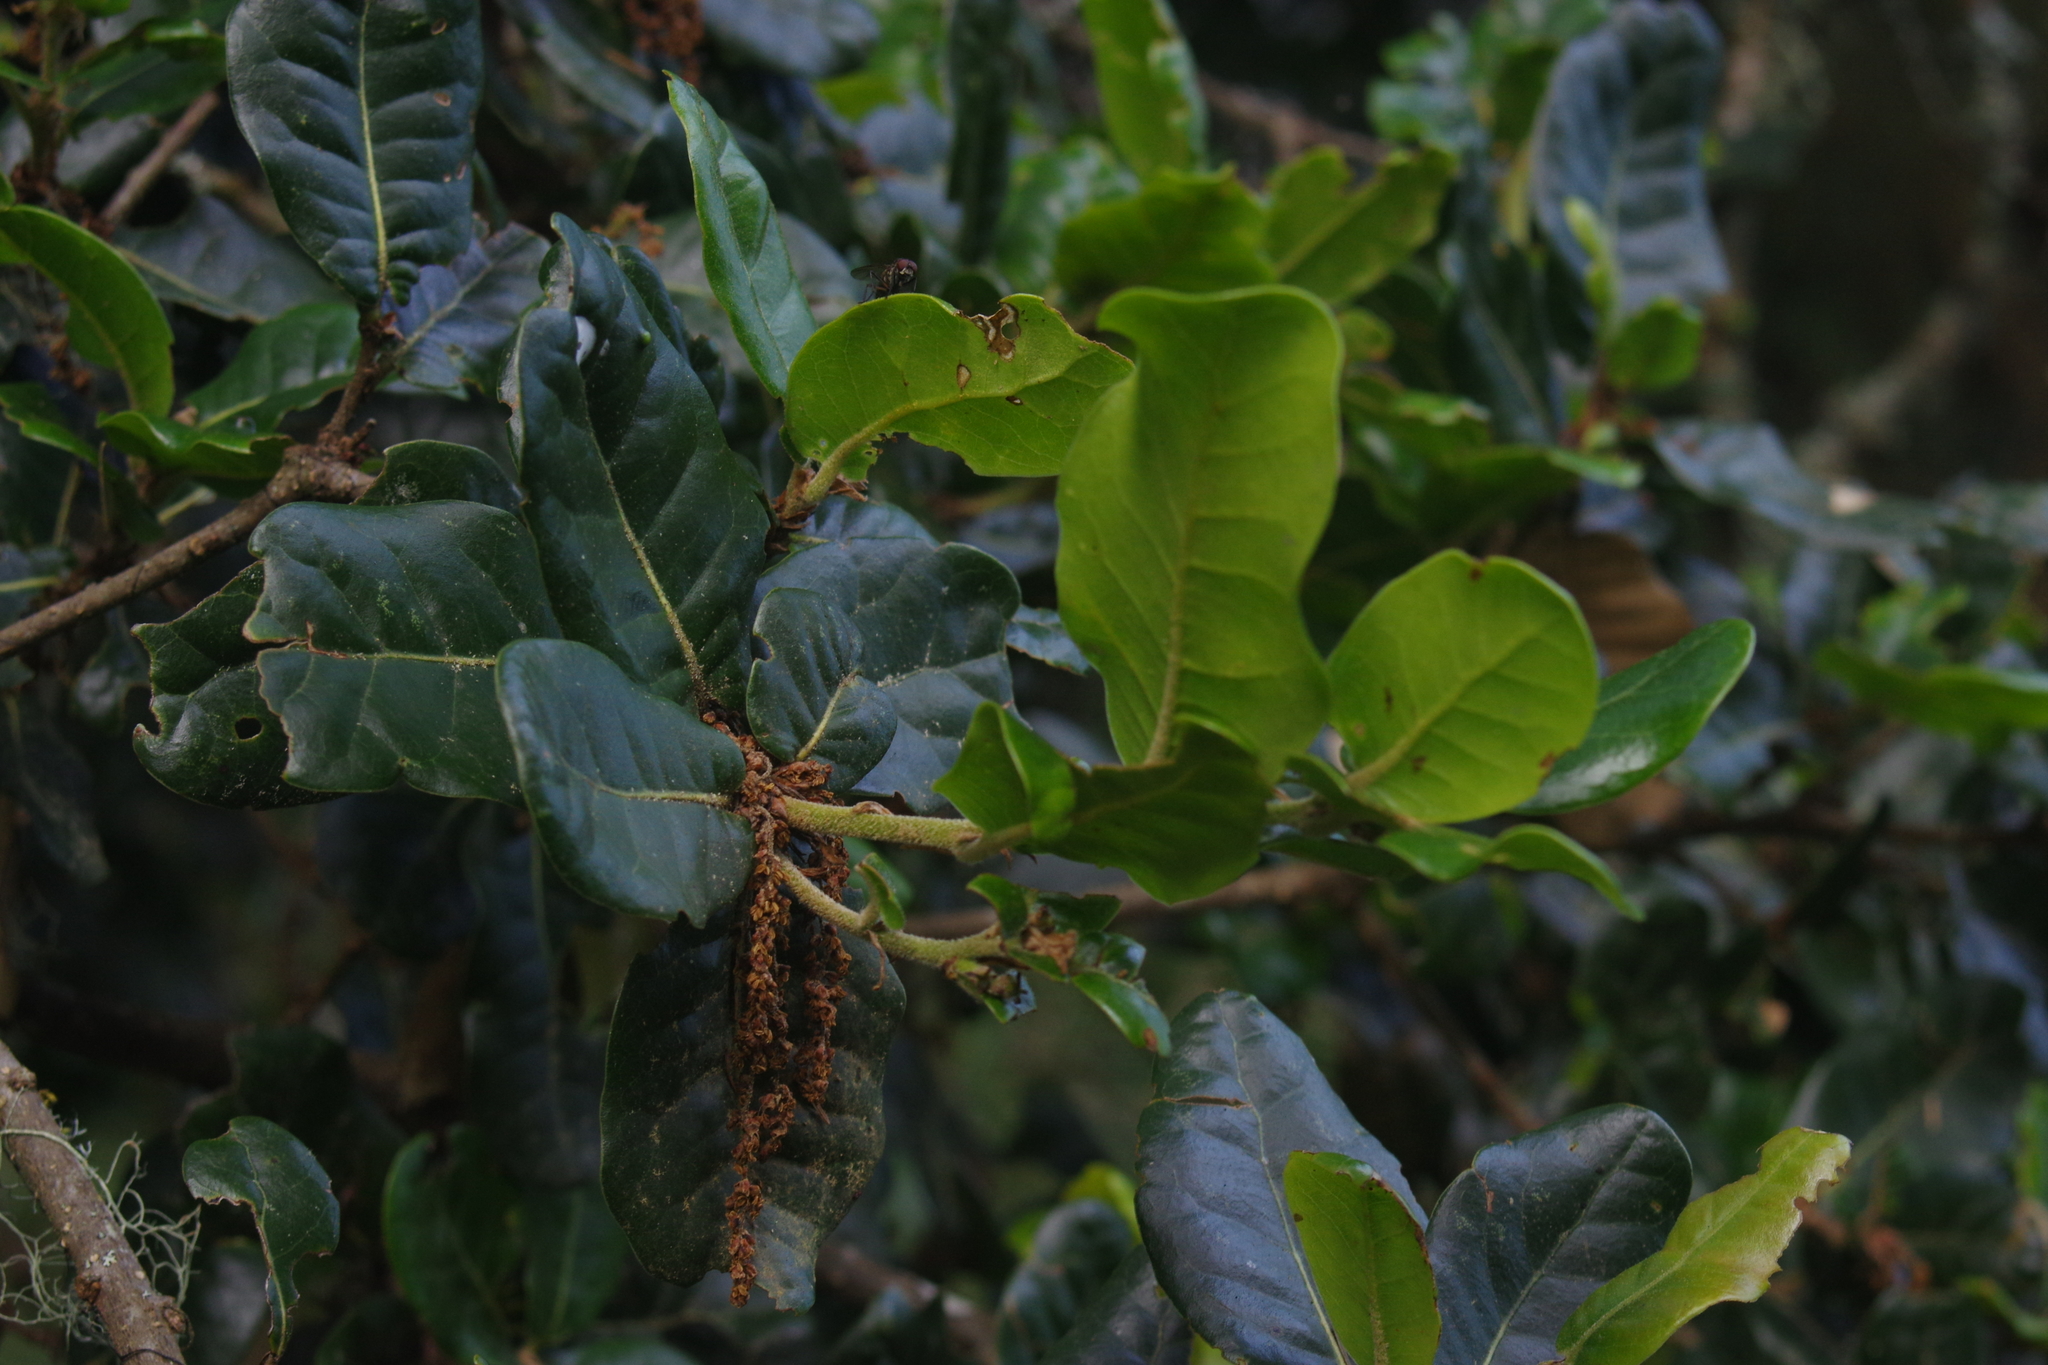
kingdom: Plantae
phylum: Tracheophyta
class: Magnoliopsida
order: Fagales
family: Fagaceae
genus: Quercus
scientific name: Quercus spinosa
